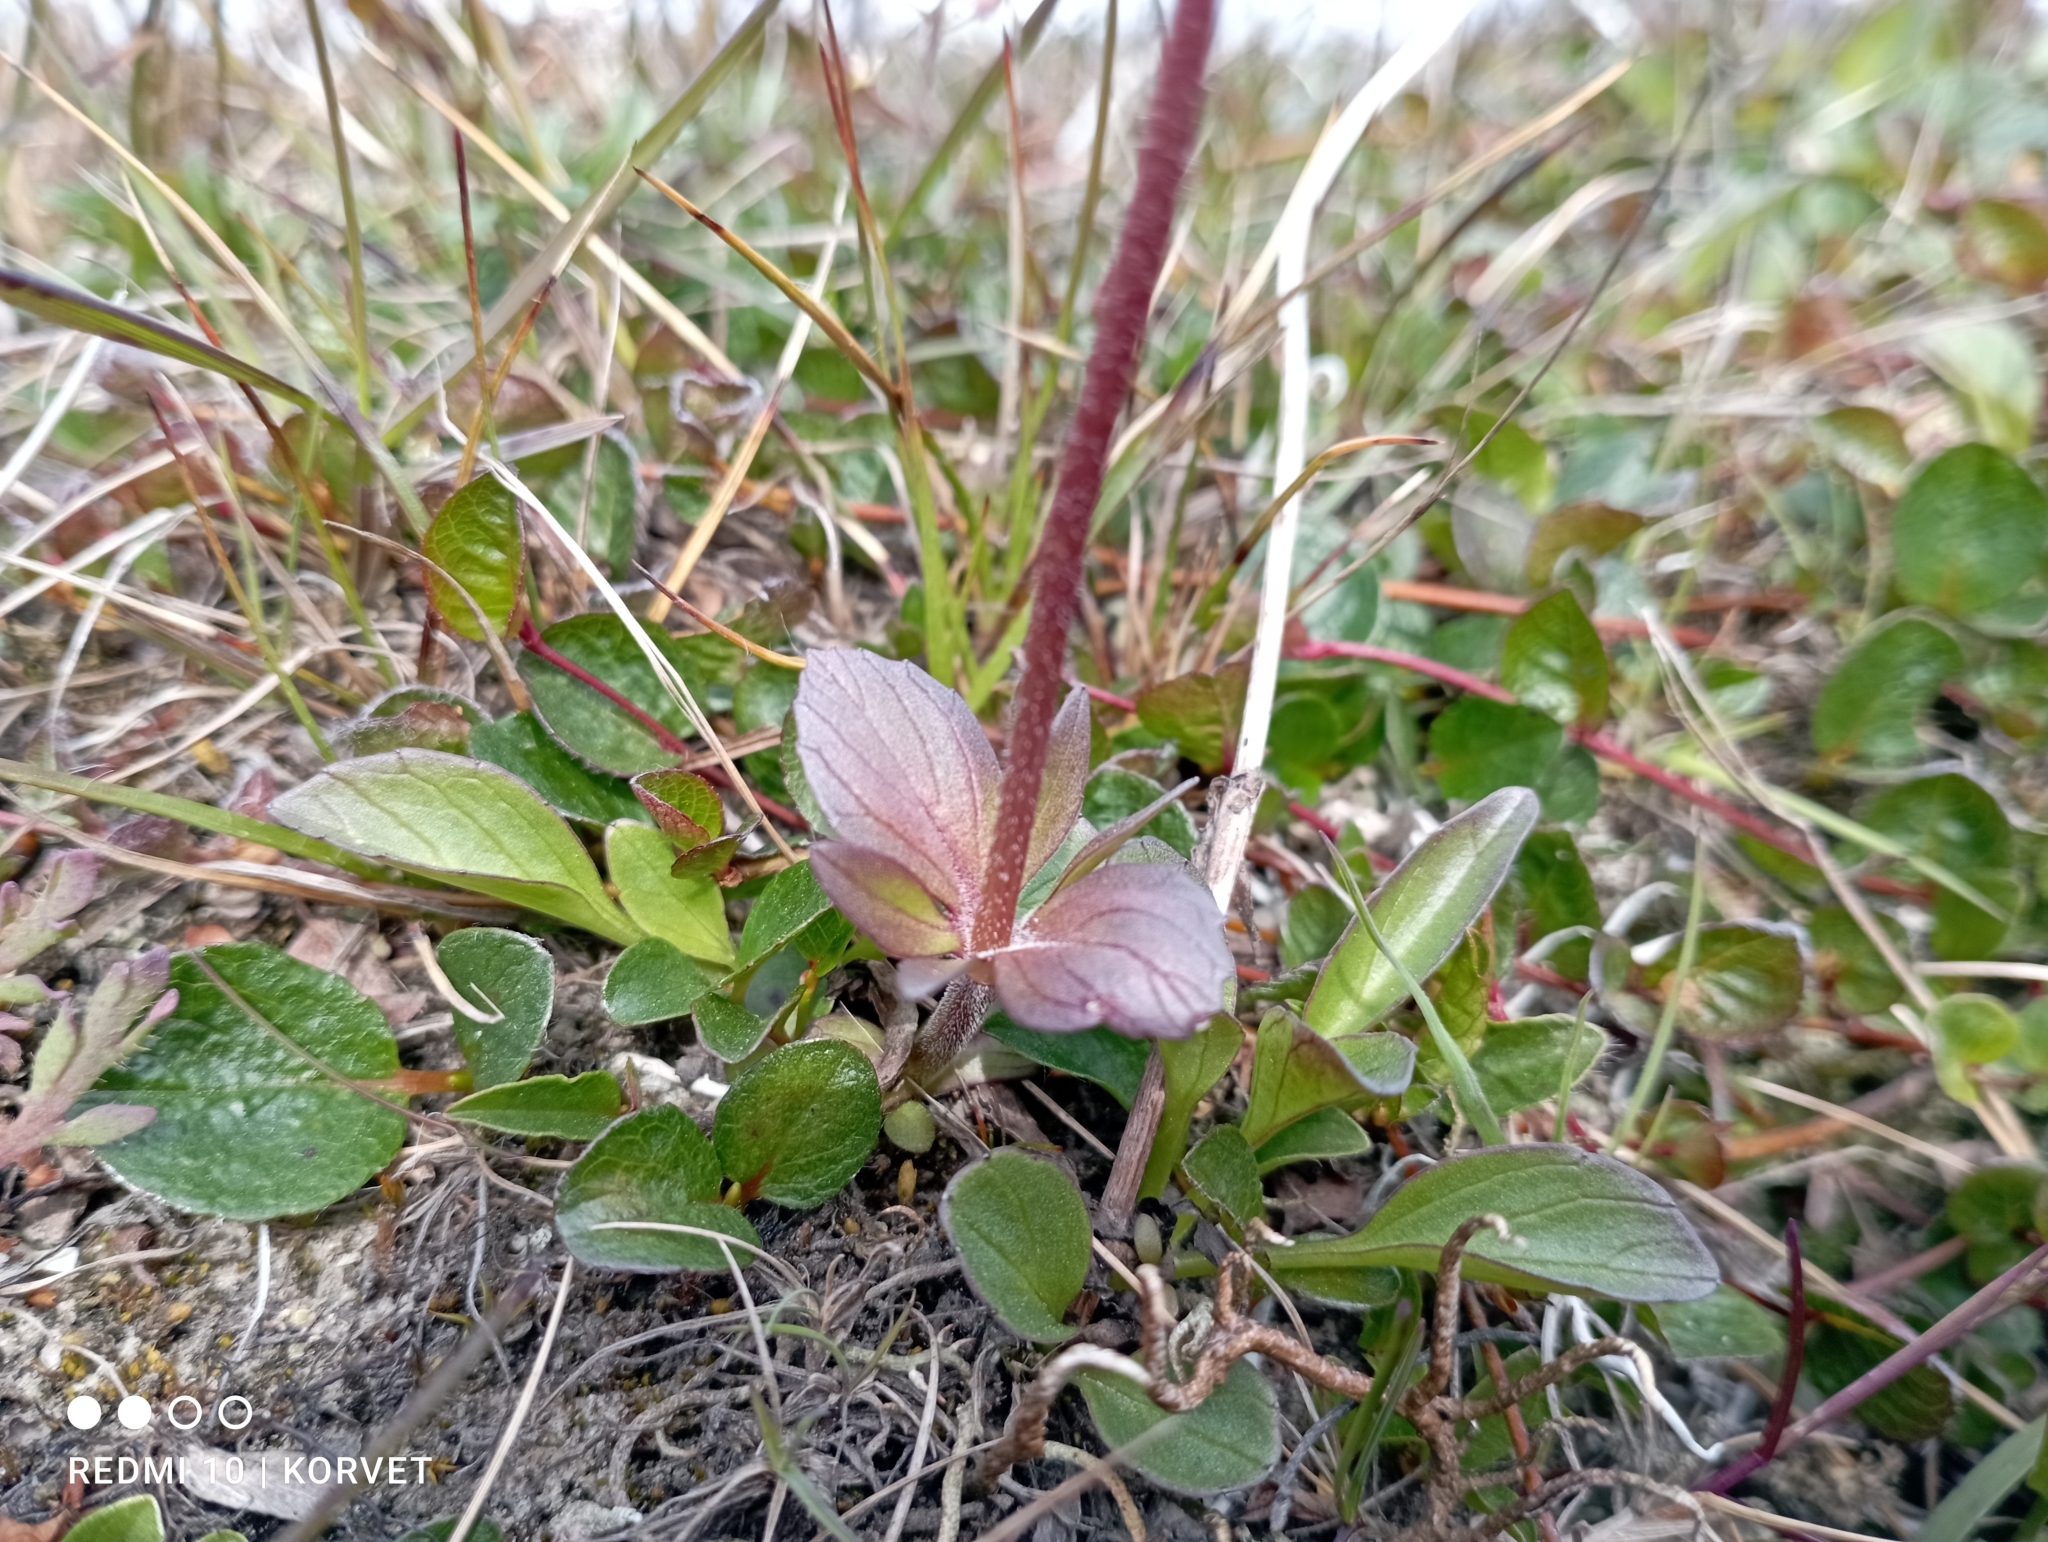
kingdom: Plantae
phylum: Tracheophyta
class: Magnoliopsida
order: Dipsacales
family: Caprifoliaceae
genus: Valeriana
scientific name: Valeriana capitata
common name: Capitate valerian
